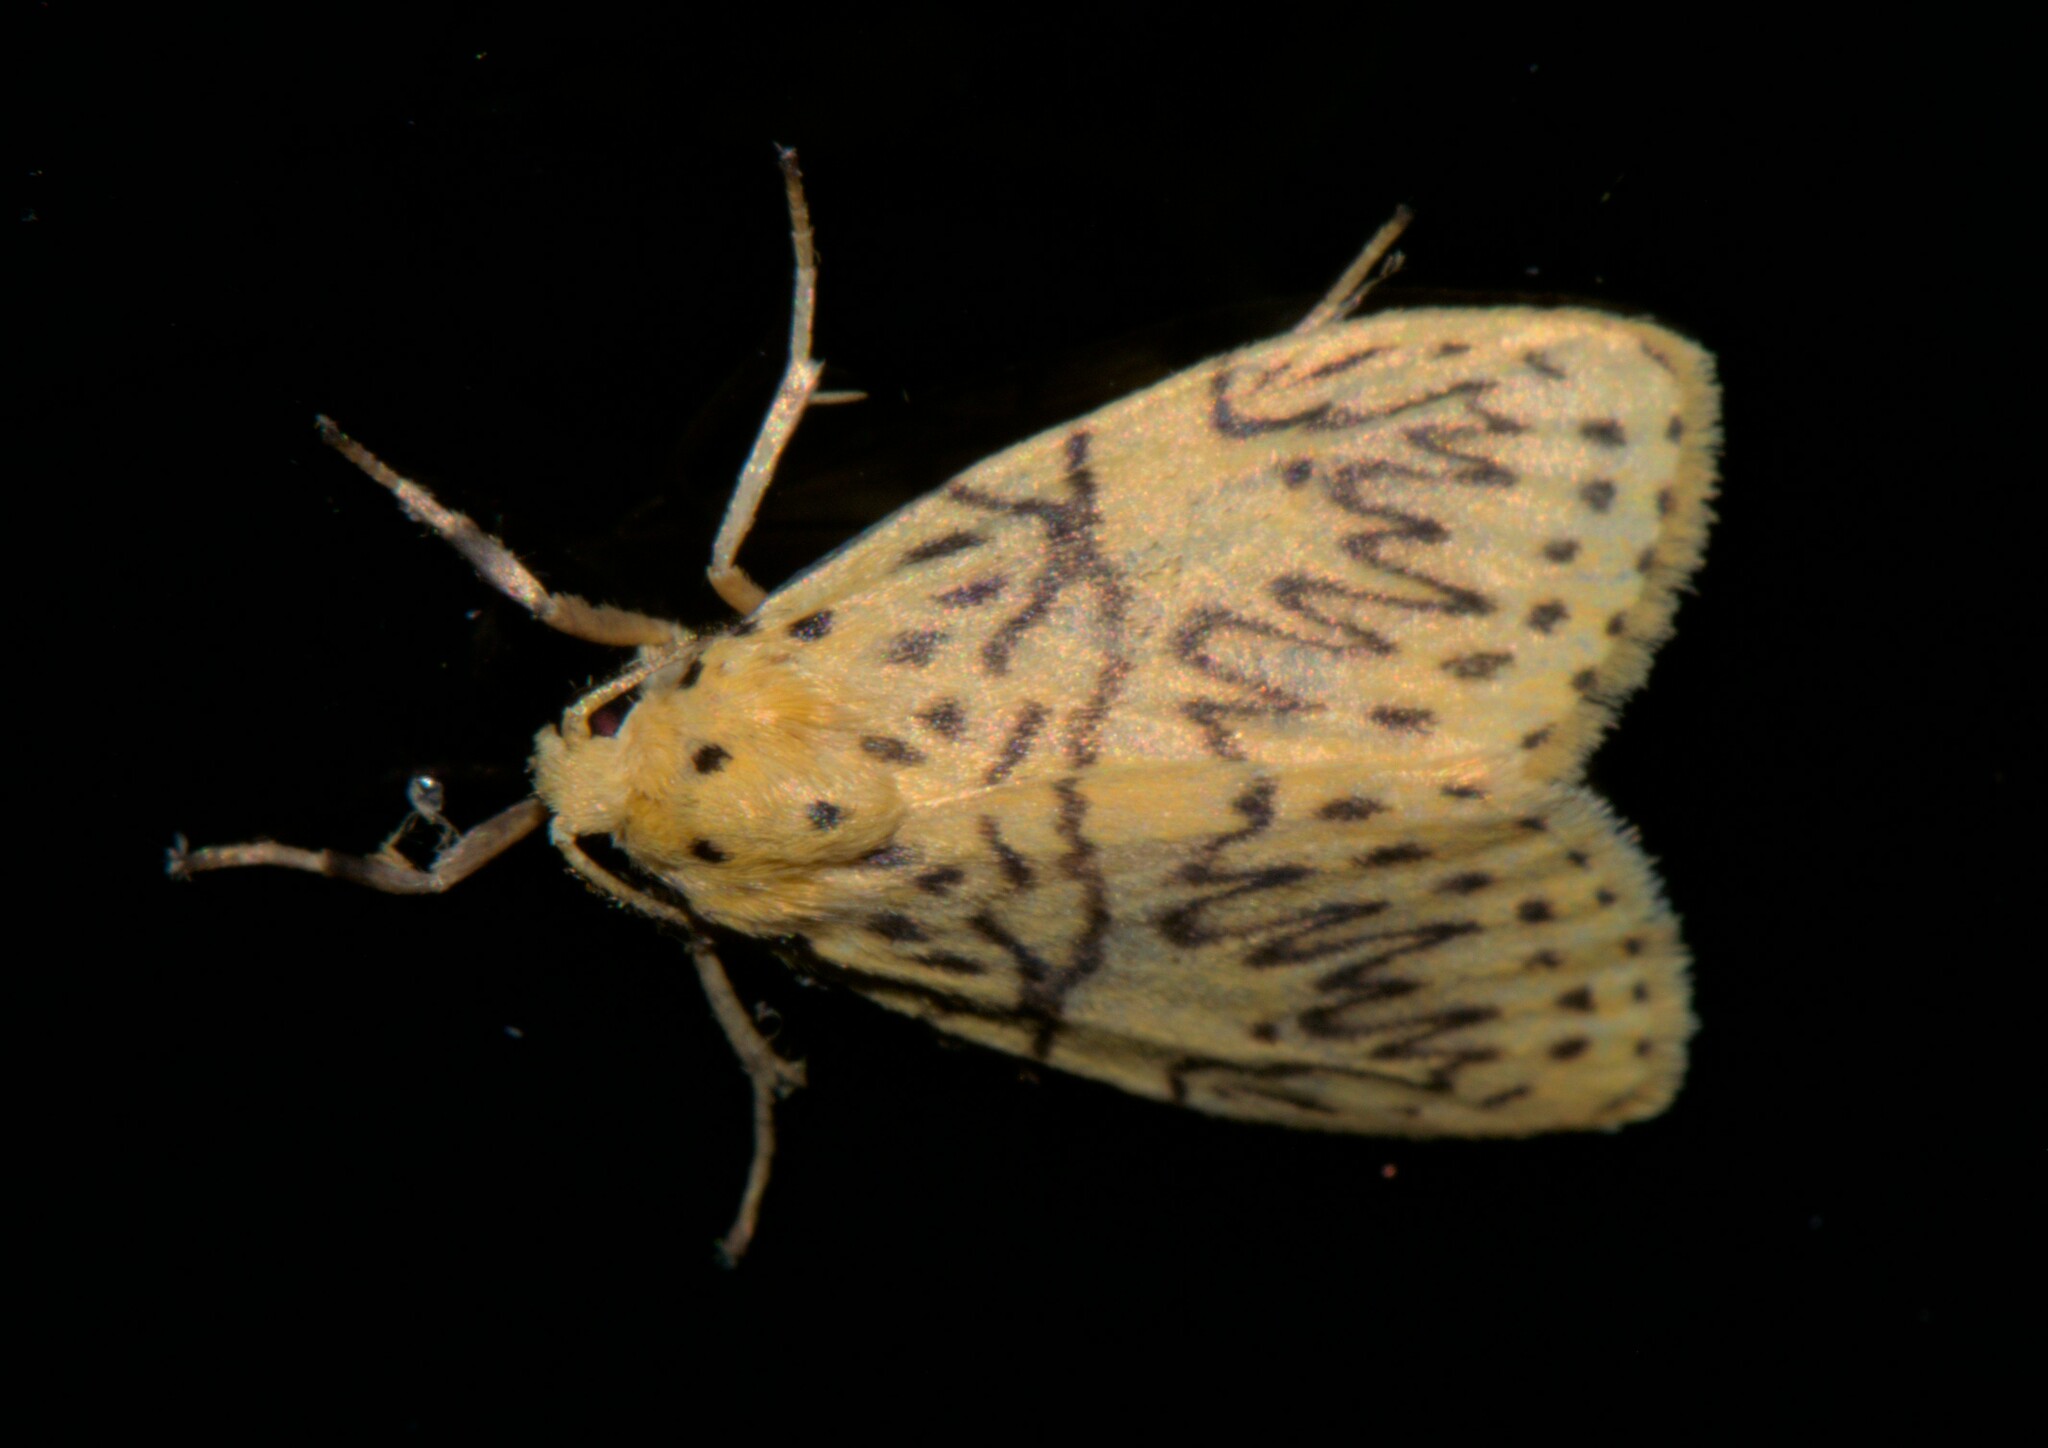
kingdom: Animalia
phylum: Arthropoda
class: Insecta
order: Lepidoptera
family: Erebidae
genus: Miltochrista
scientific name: Miltochrista undulosa
